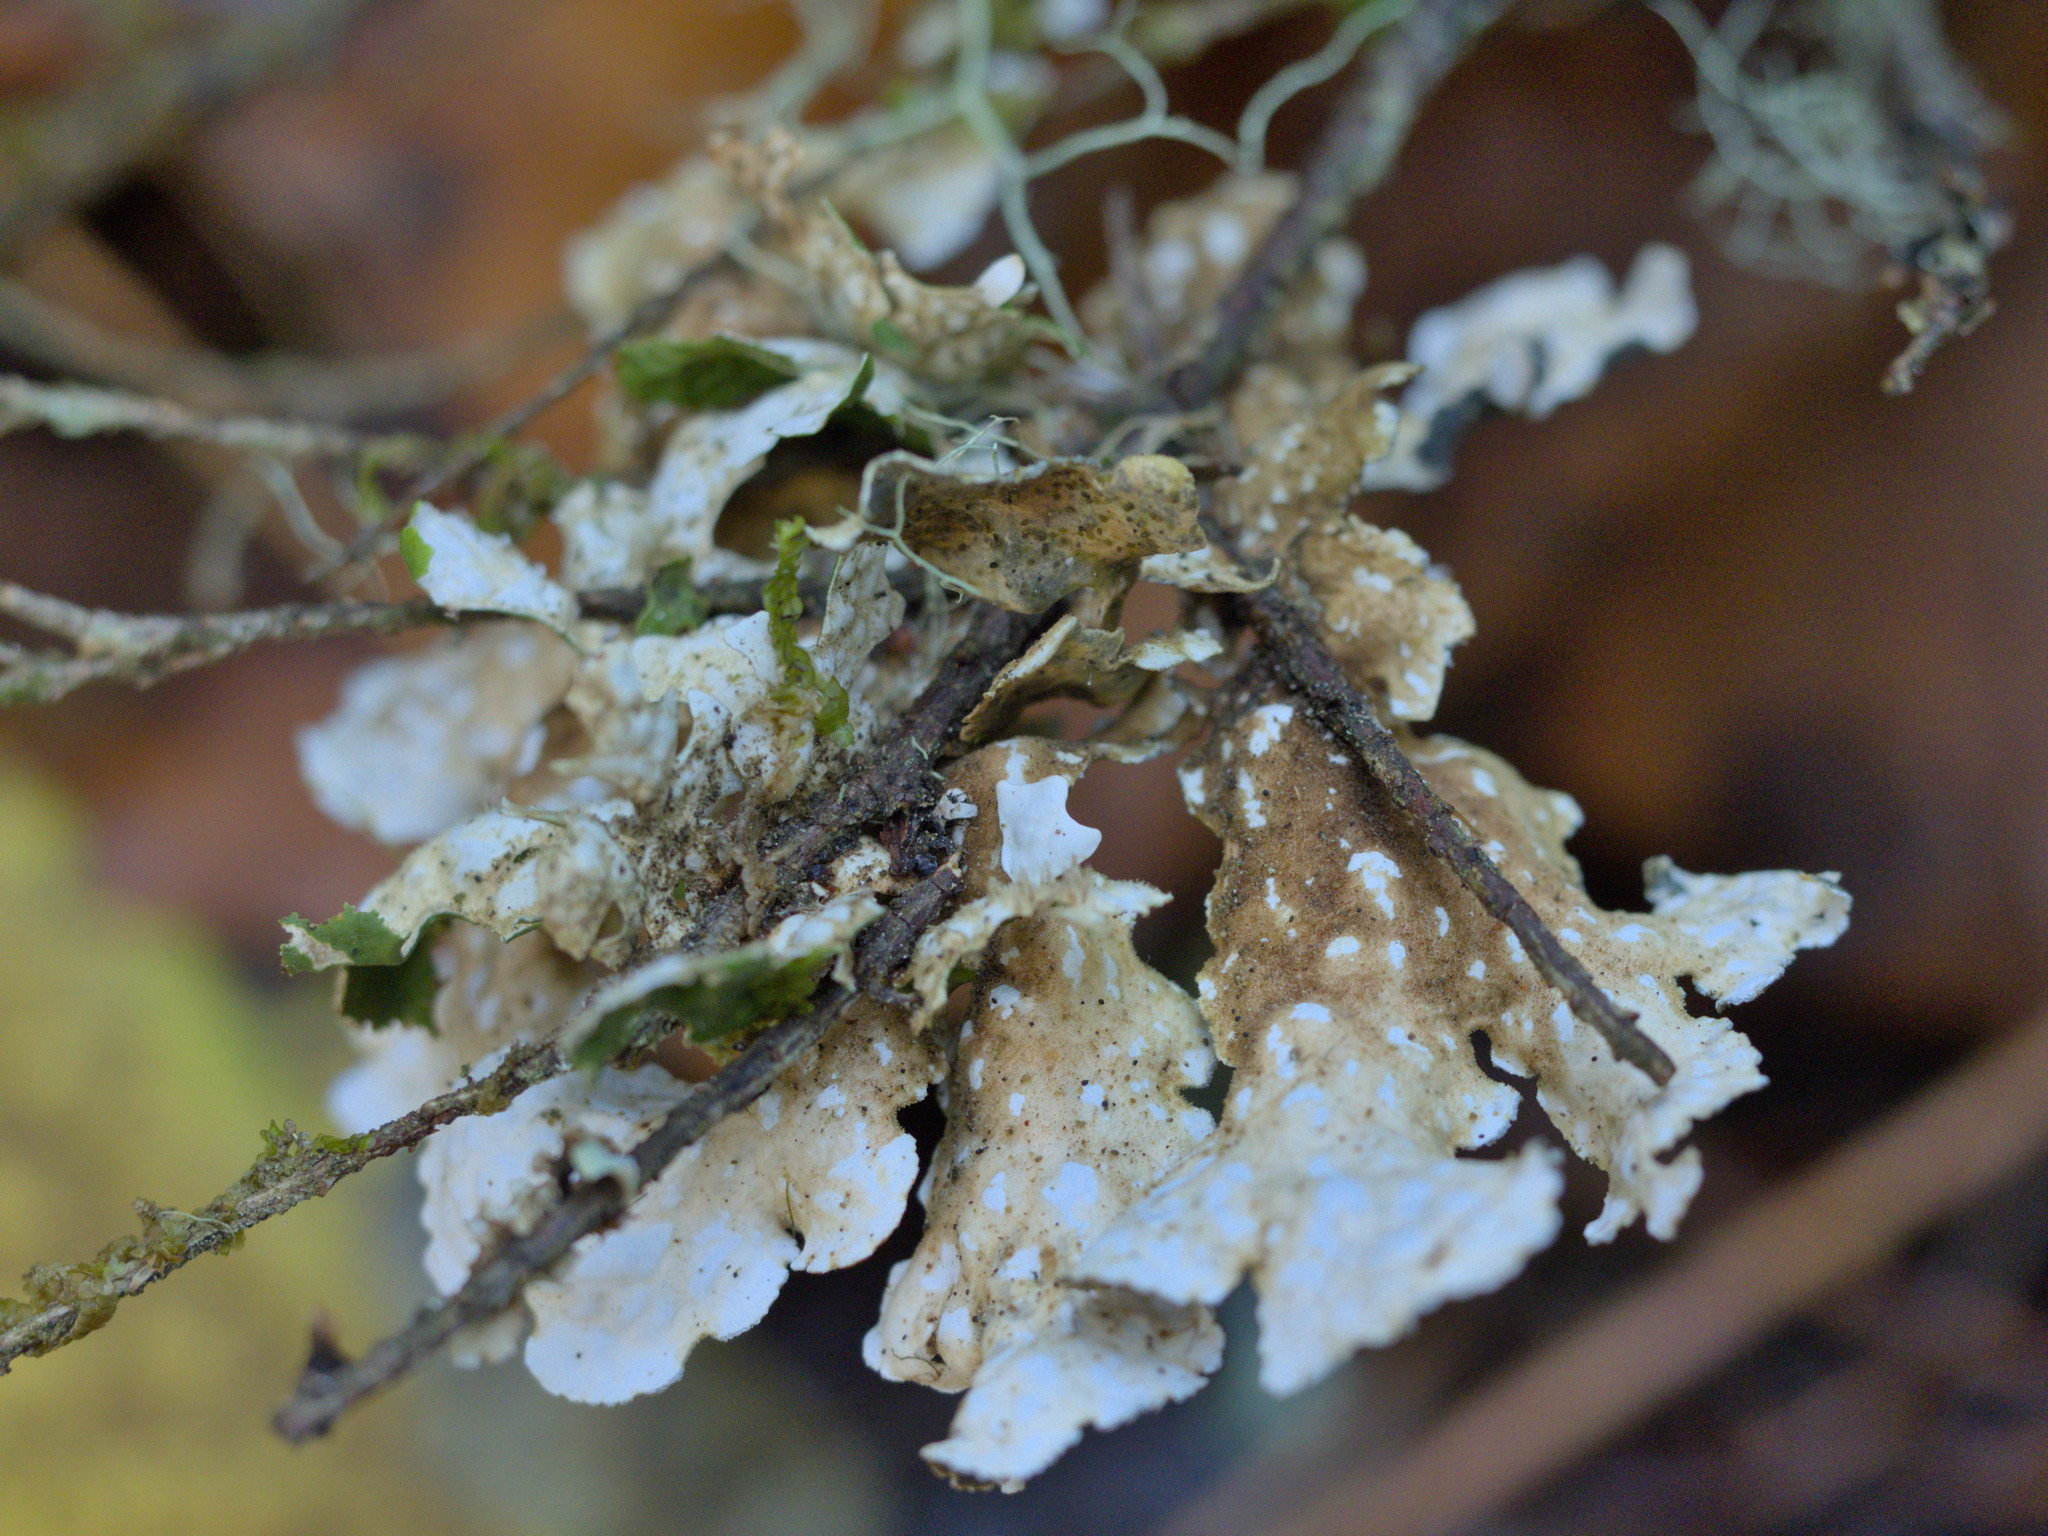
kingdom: Fungi
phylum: Ascomycota
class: Lecanoromycetes
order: Peltigerales
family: Lobariaceae
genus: Lobarina
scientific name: Lobarina scrobiculata
